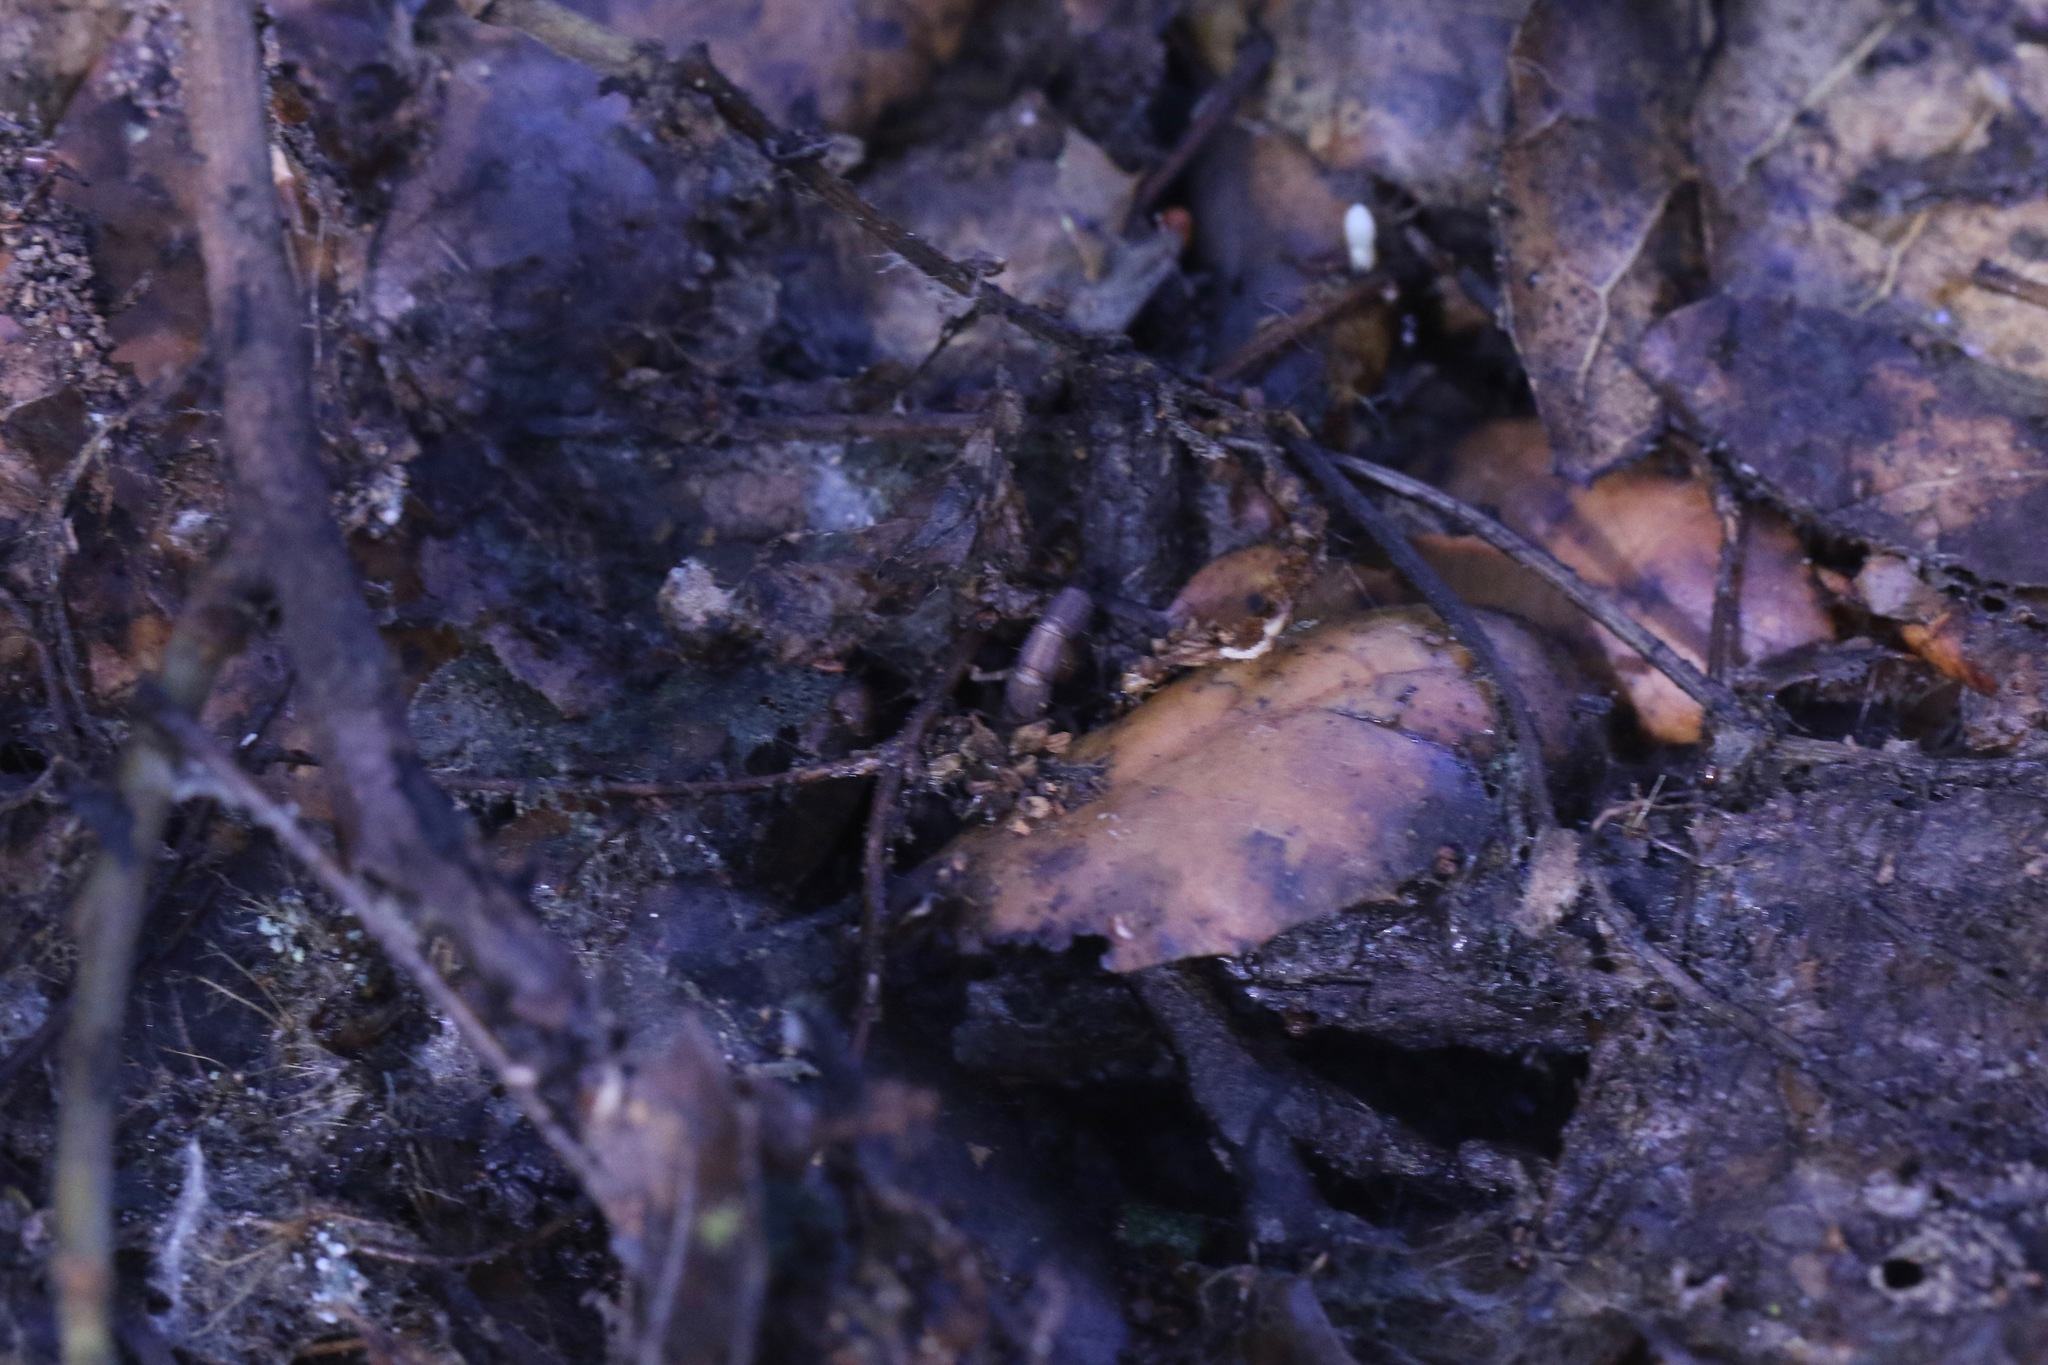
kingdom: Animalia
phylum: Arthropoda
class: Arachnida
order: Scorpiones
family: Vaejovidae
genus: Uroctonites
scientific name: Uroctonites montereus
